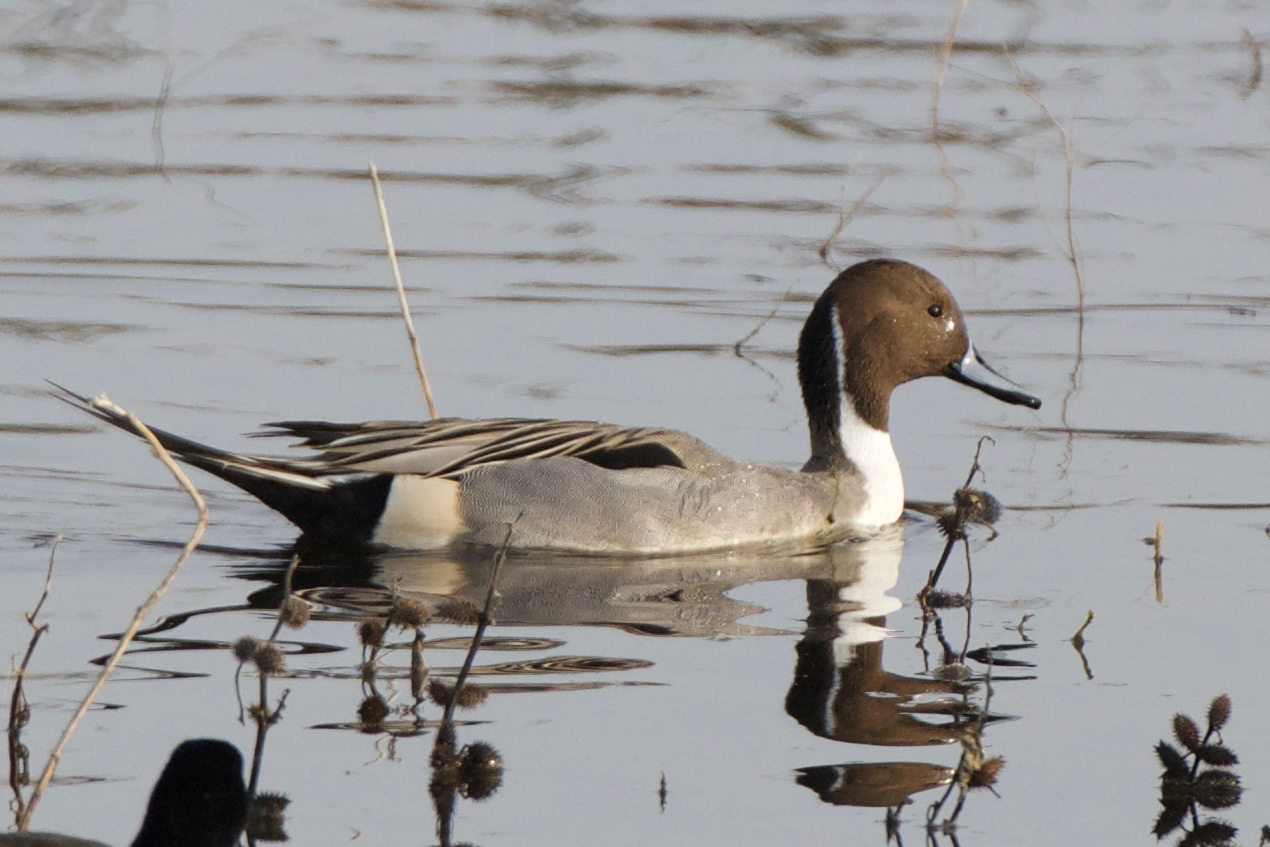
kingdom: Animalia
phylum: Chordata
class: Aves
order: Anseriformes
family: Anatidae
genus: Anas
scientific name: Anas acuta
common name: Northern pintail
